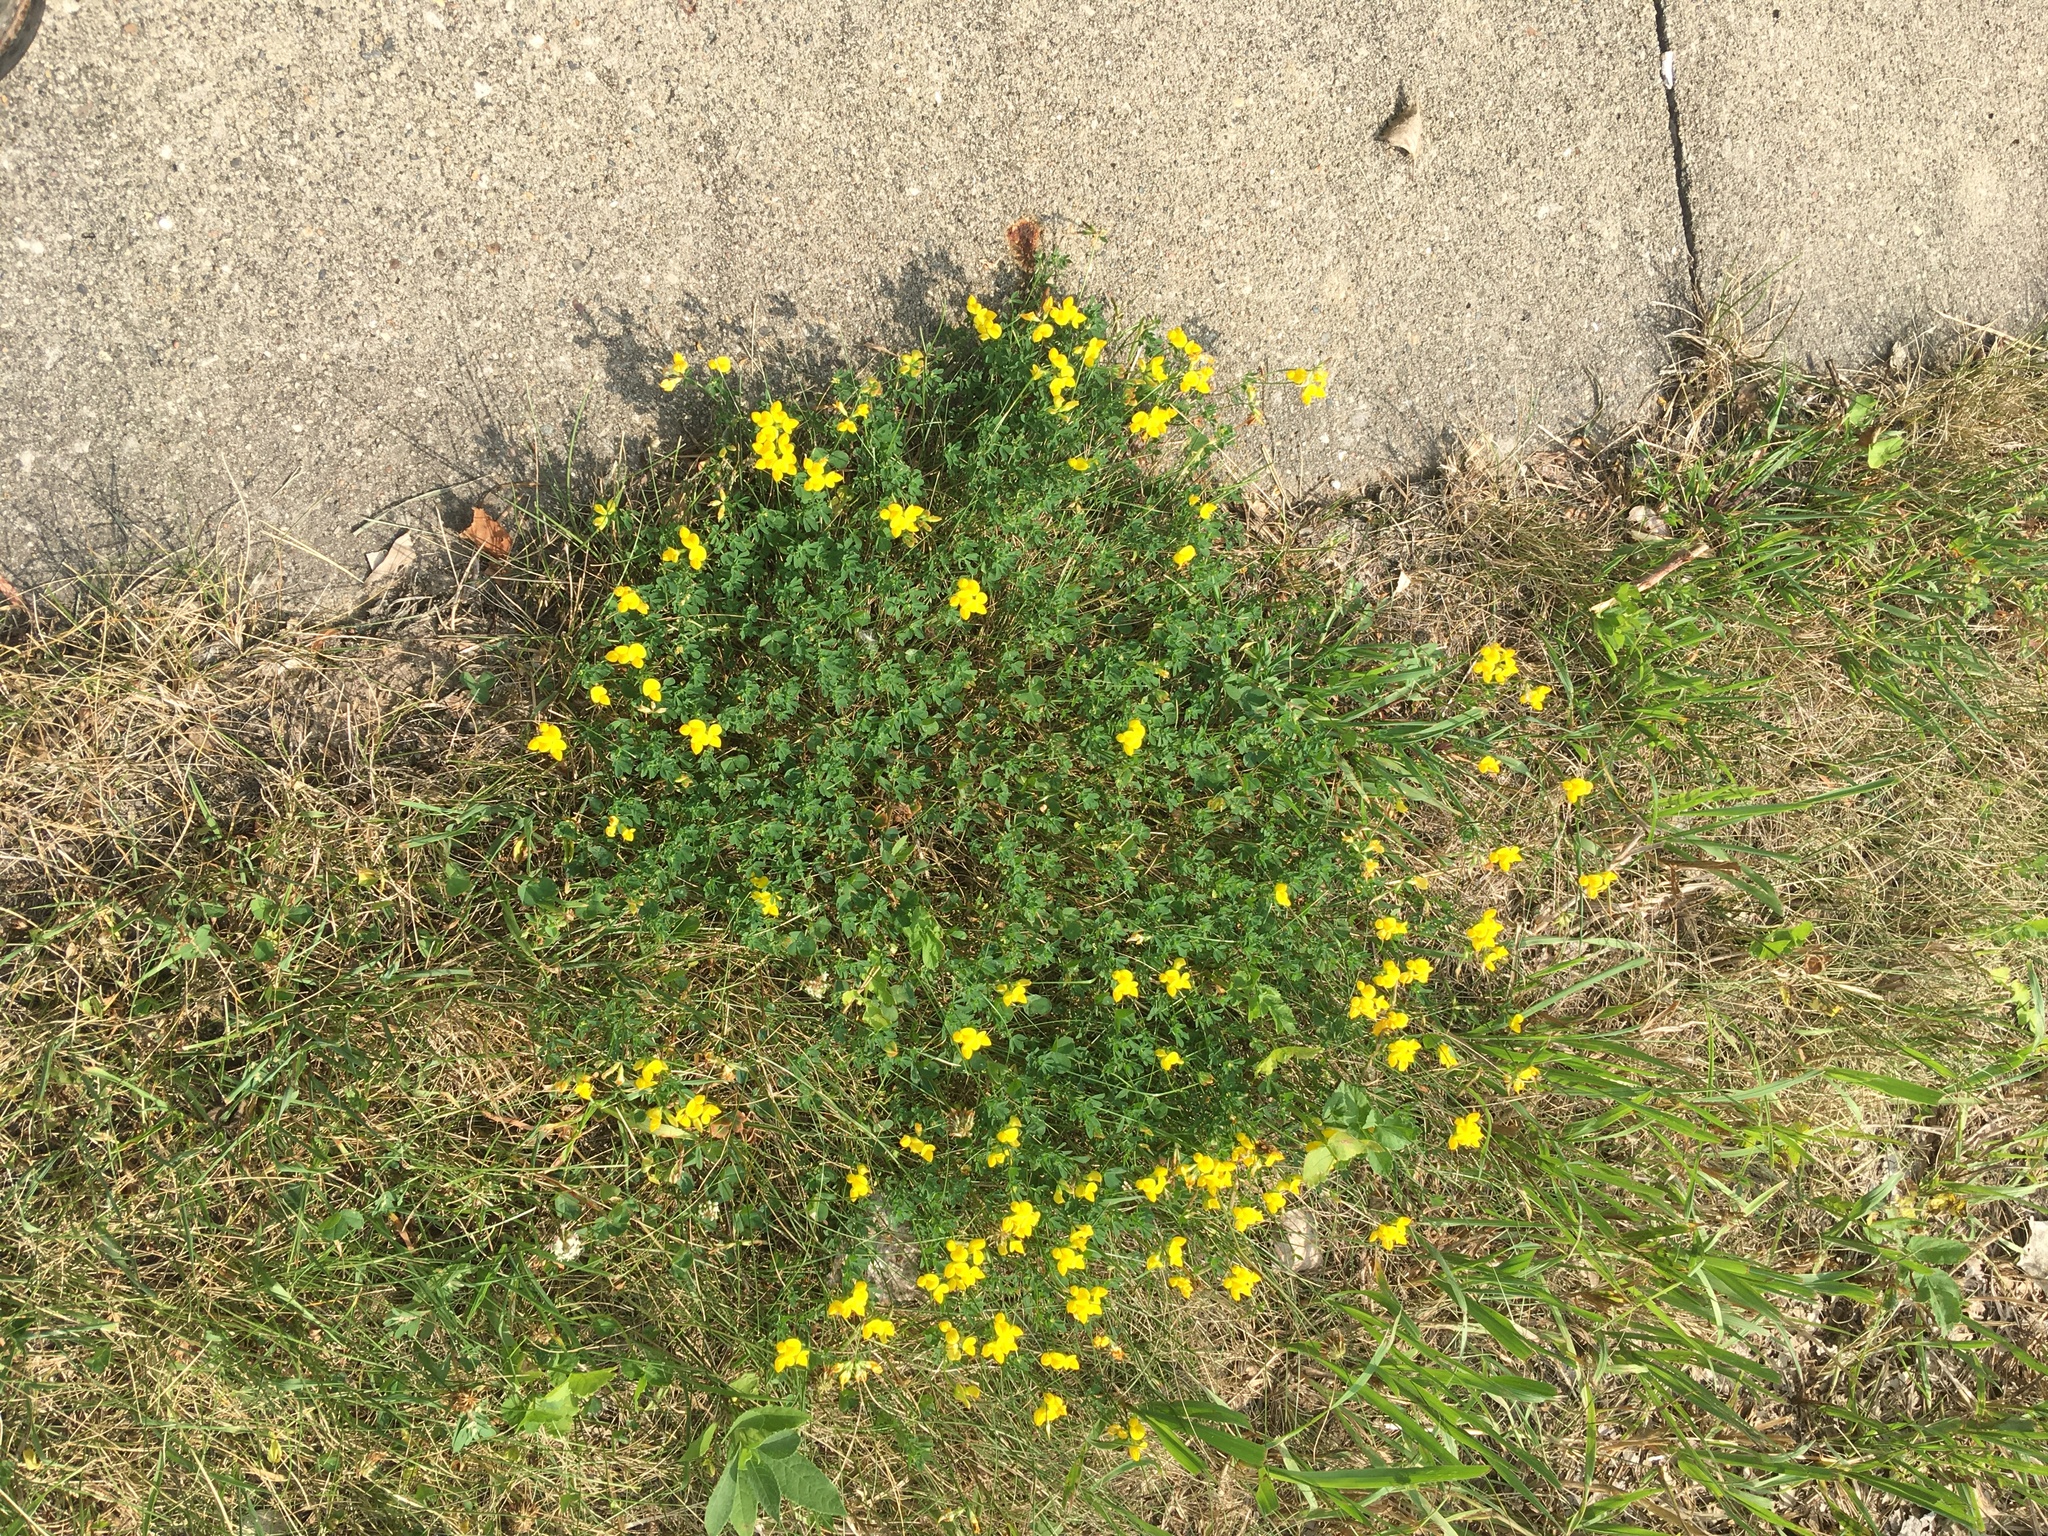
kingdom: Plantae
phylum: Tracheophyta
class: Magnoliopsida
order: Fabales
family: Fabaceae
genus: Lotus
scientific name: Lotus corniculatus
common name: Common bird's-foot-trefoil
